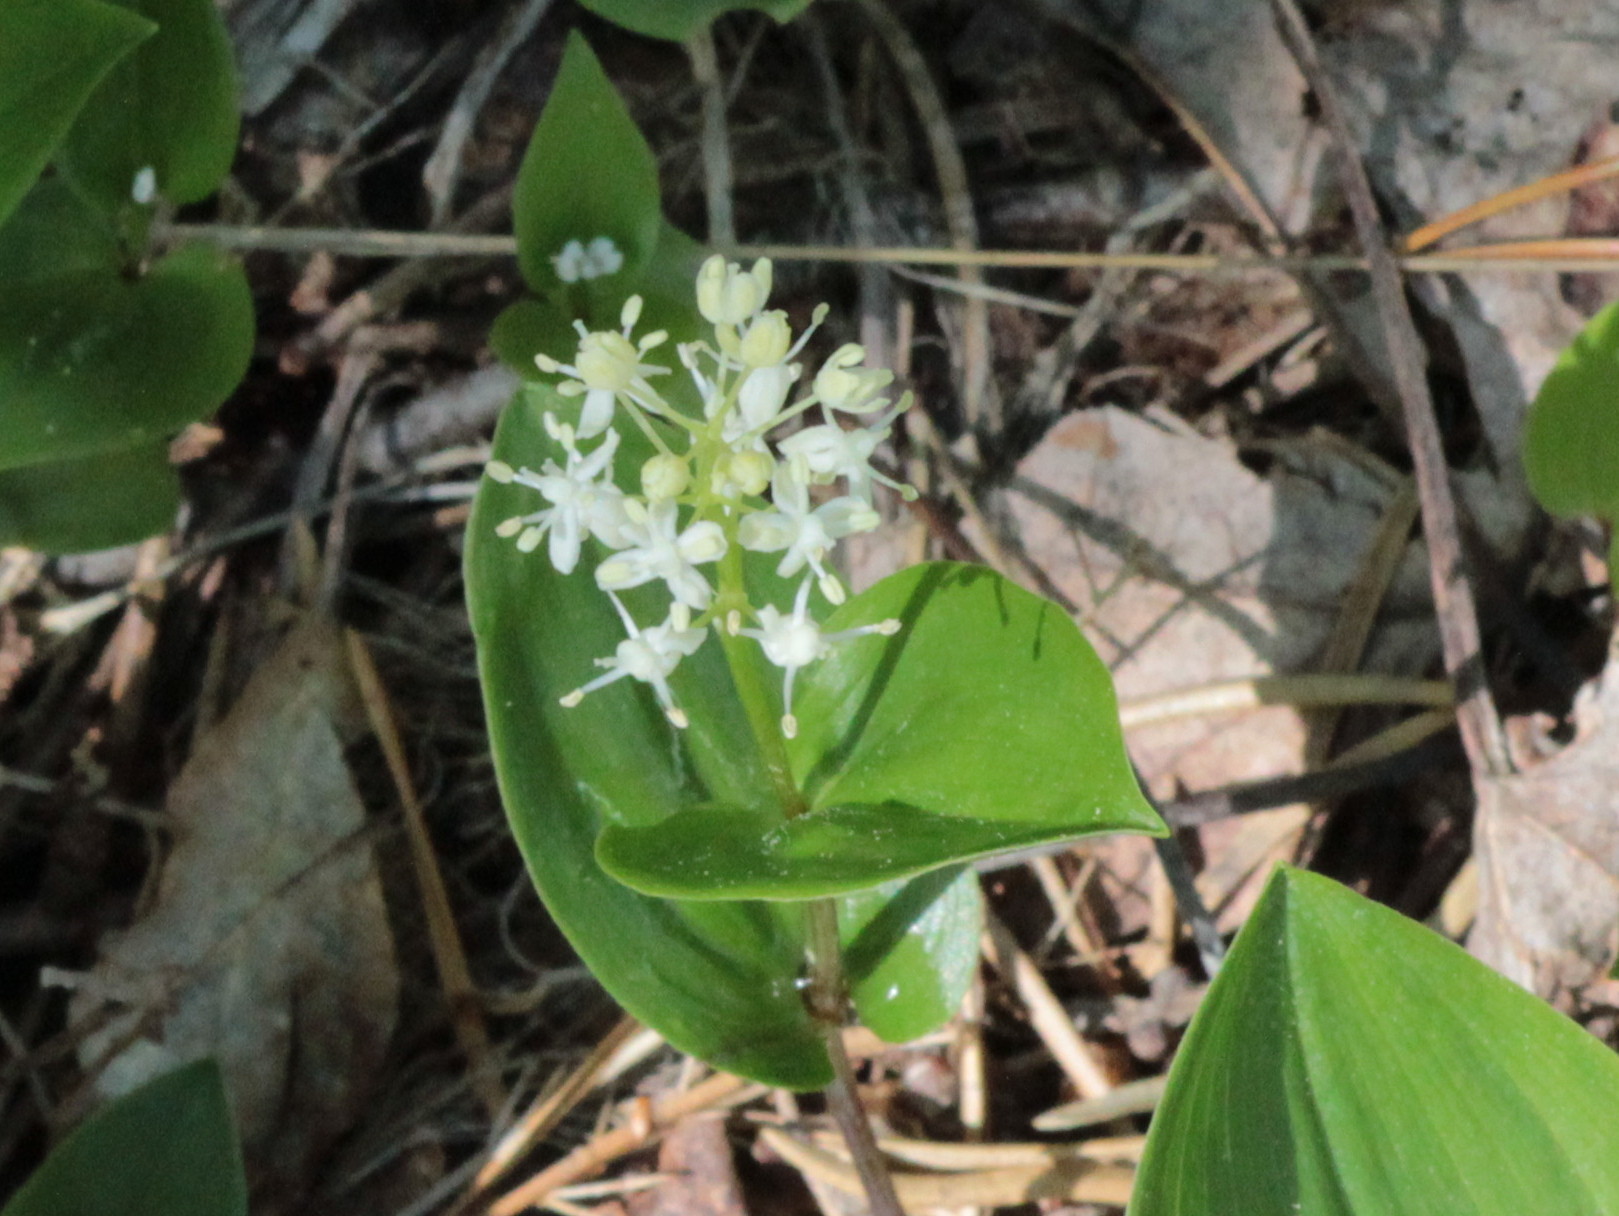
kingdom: Plantae
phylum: Tracheophyta
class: Liliopsida
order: Asparagales
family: Asparagaceae
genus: Maianthemum
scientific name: Maianthemum canadense
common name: False lily-of-the-valley
